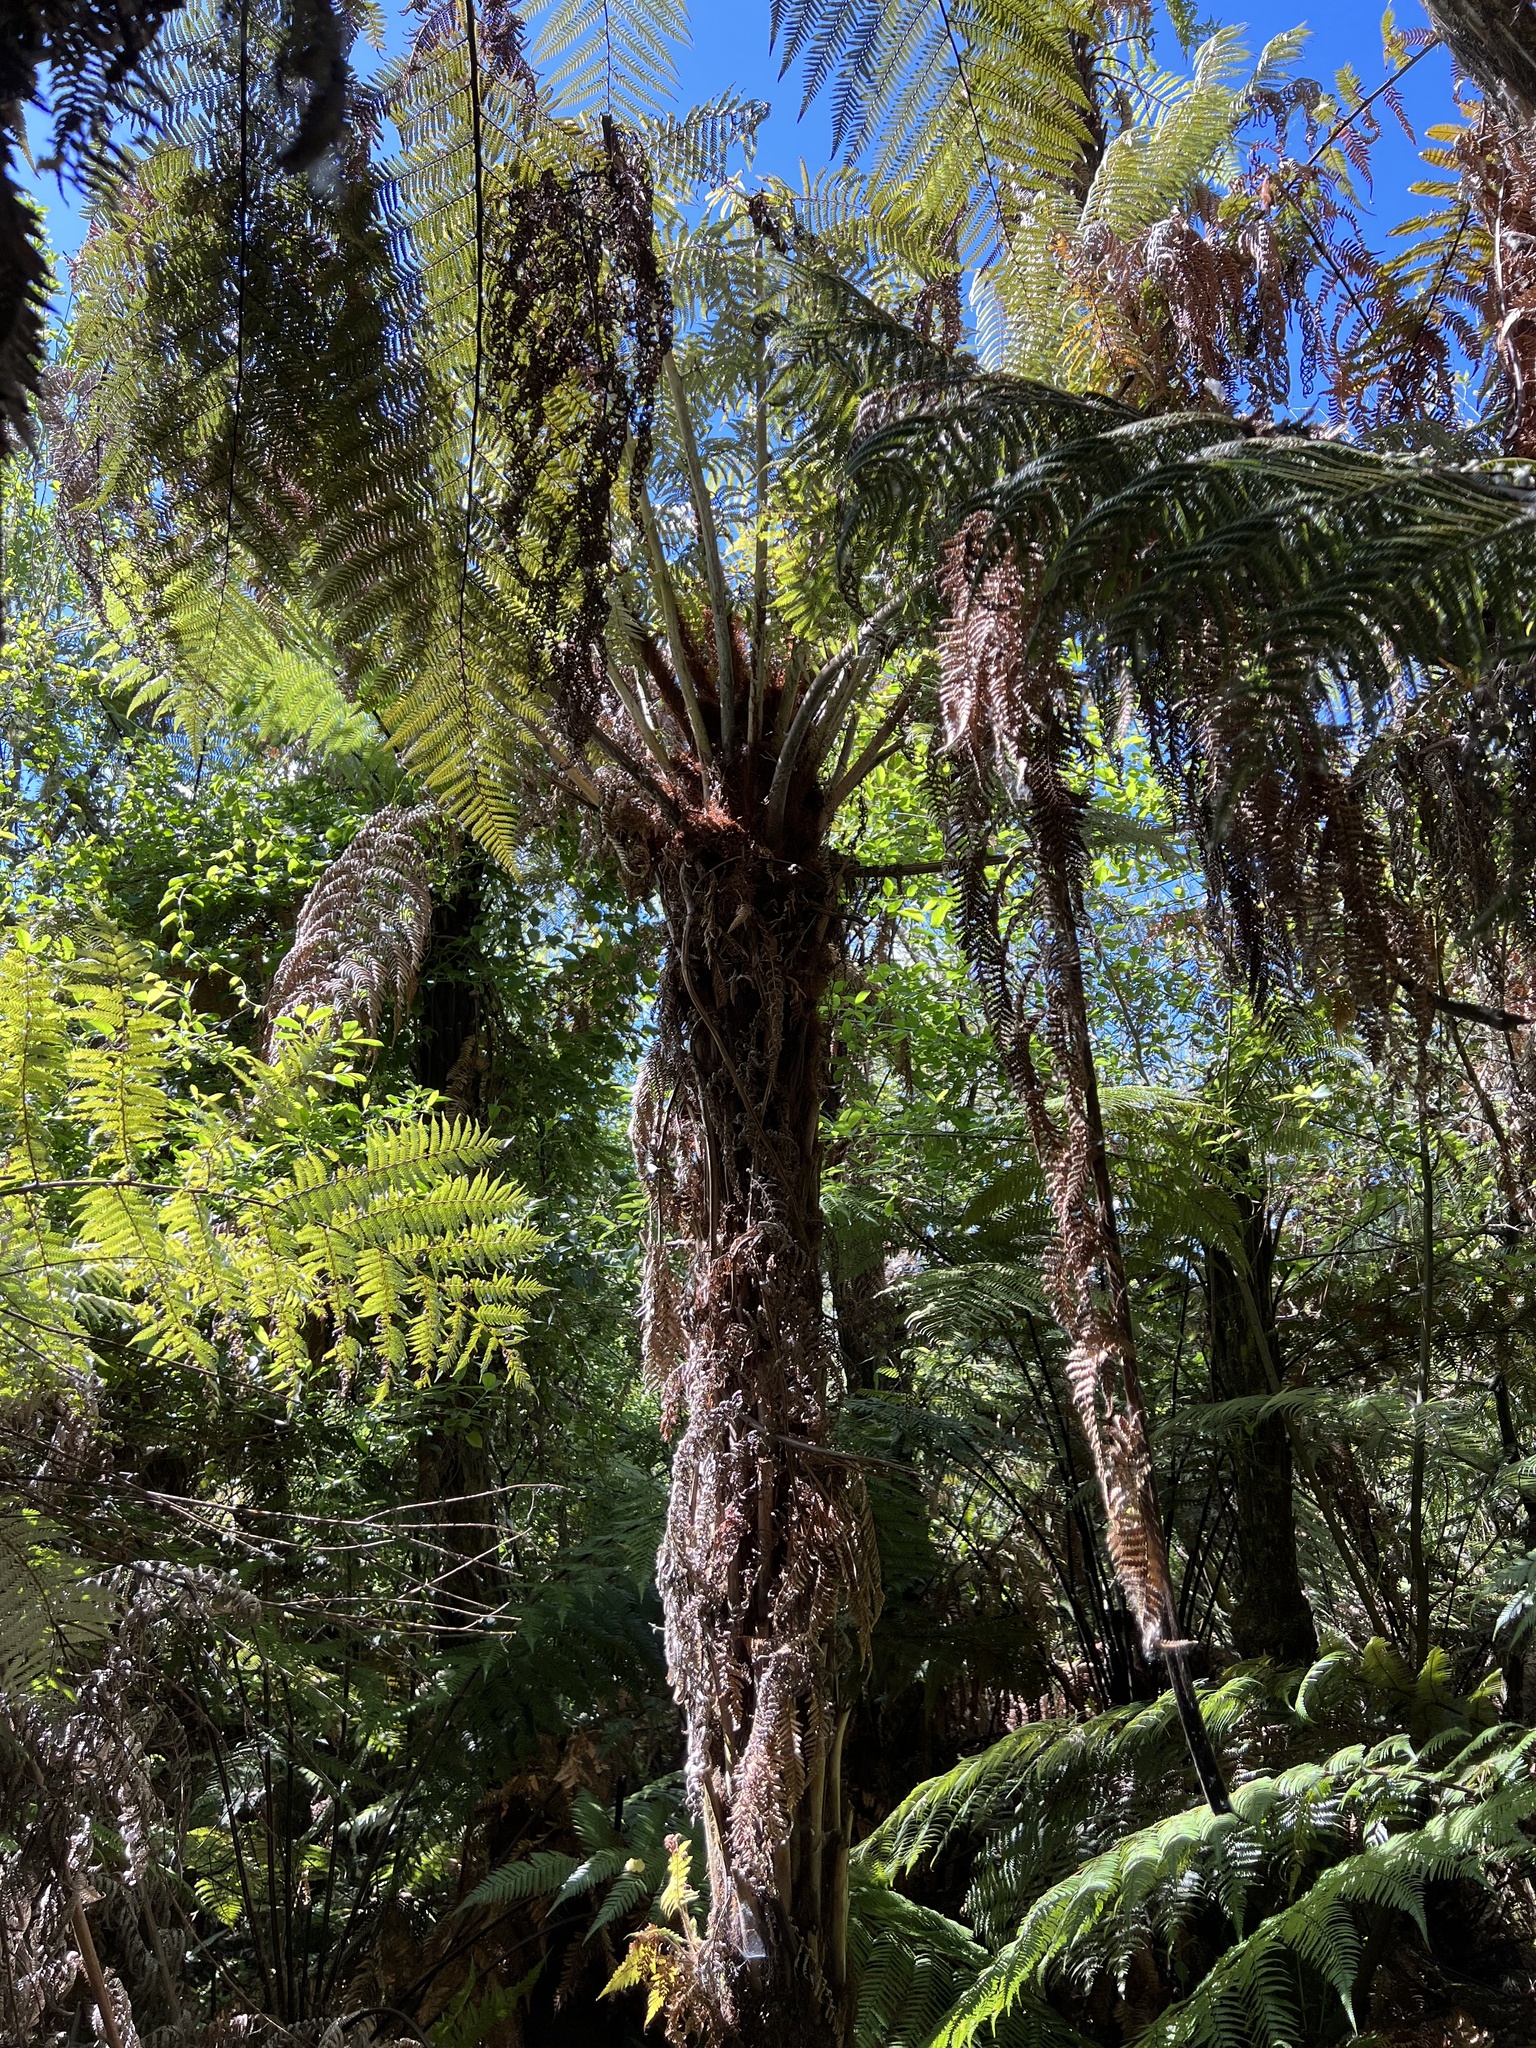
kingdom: Plantae
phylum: Tracheophyta
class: Polypodiopsida
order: Cyatheales
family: Cyatheaceae
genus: Alsophila
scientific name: Alsophila dealbata
